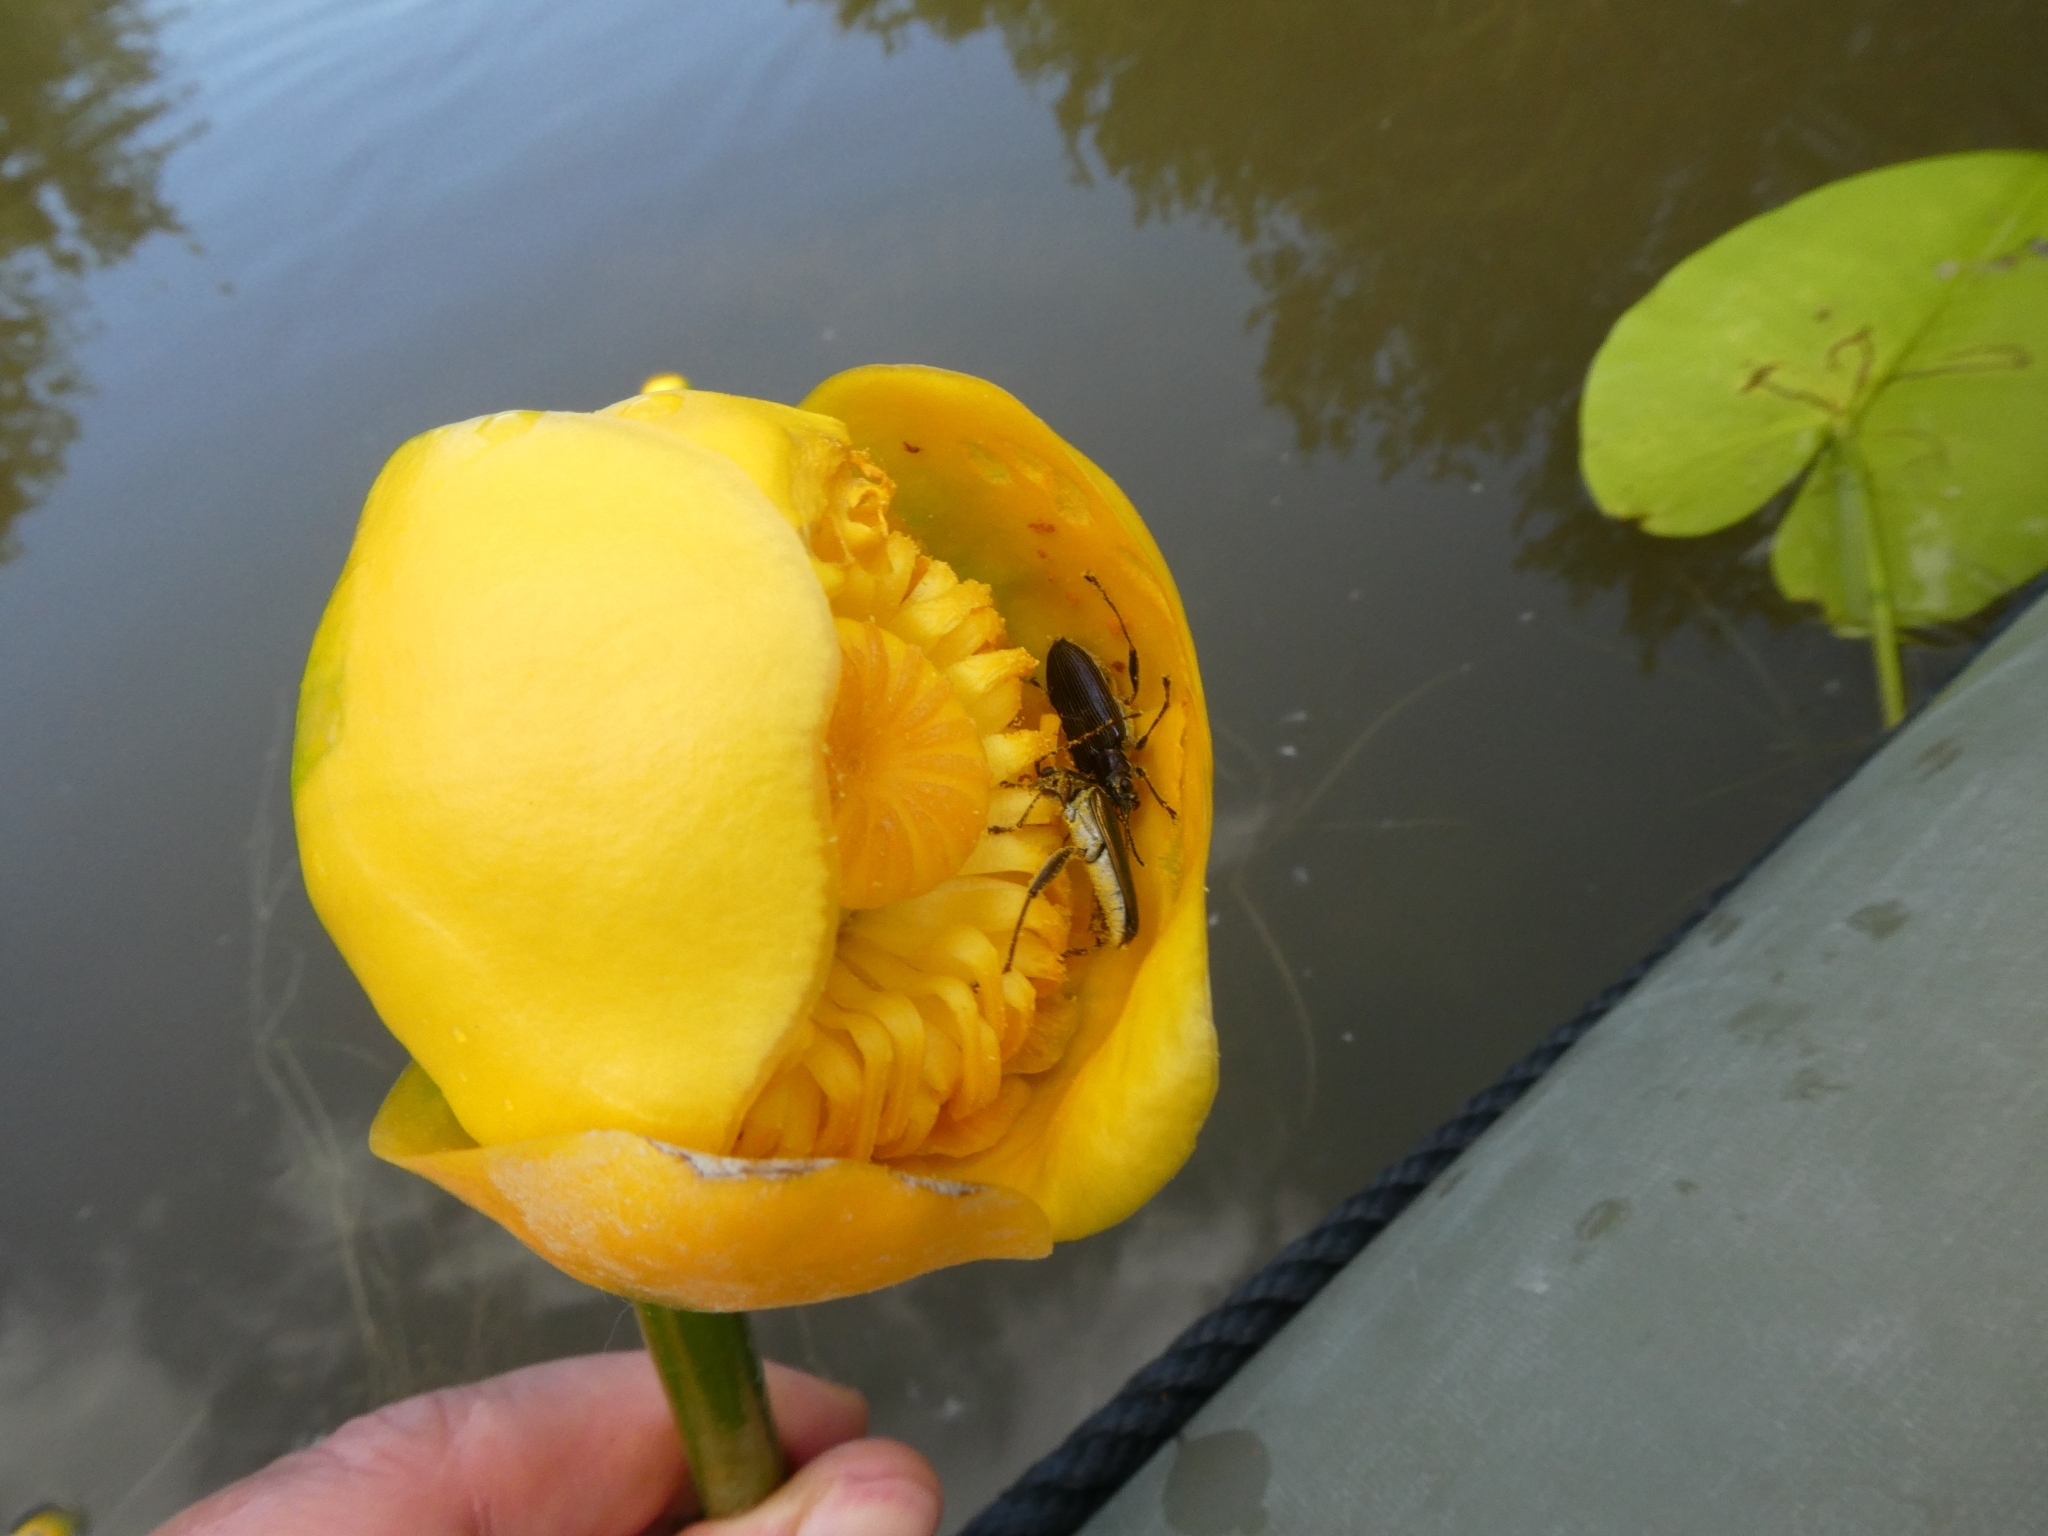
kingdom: Animalia
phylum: Arthropoda
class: Insecta
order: Coleoptera
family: Chrysomelidae
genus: Donacia
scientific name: Donacia crassipes
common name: Water-lily reed beetle
